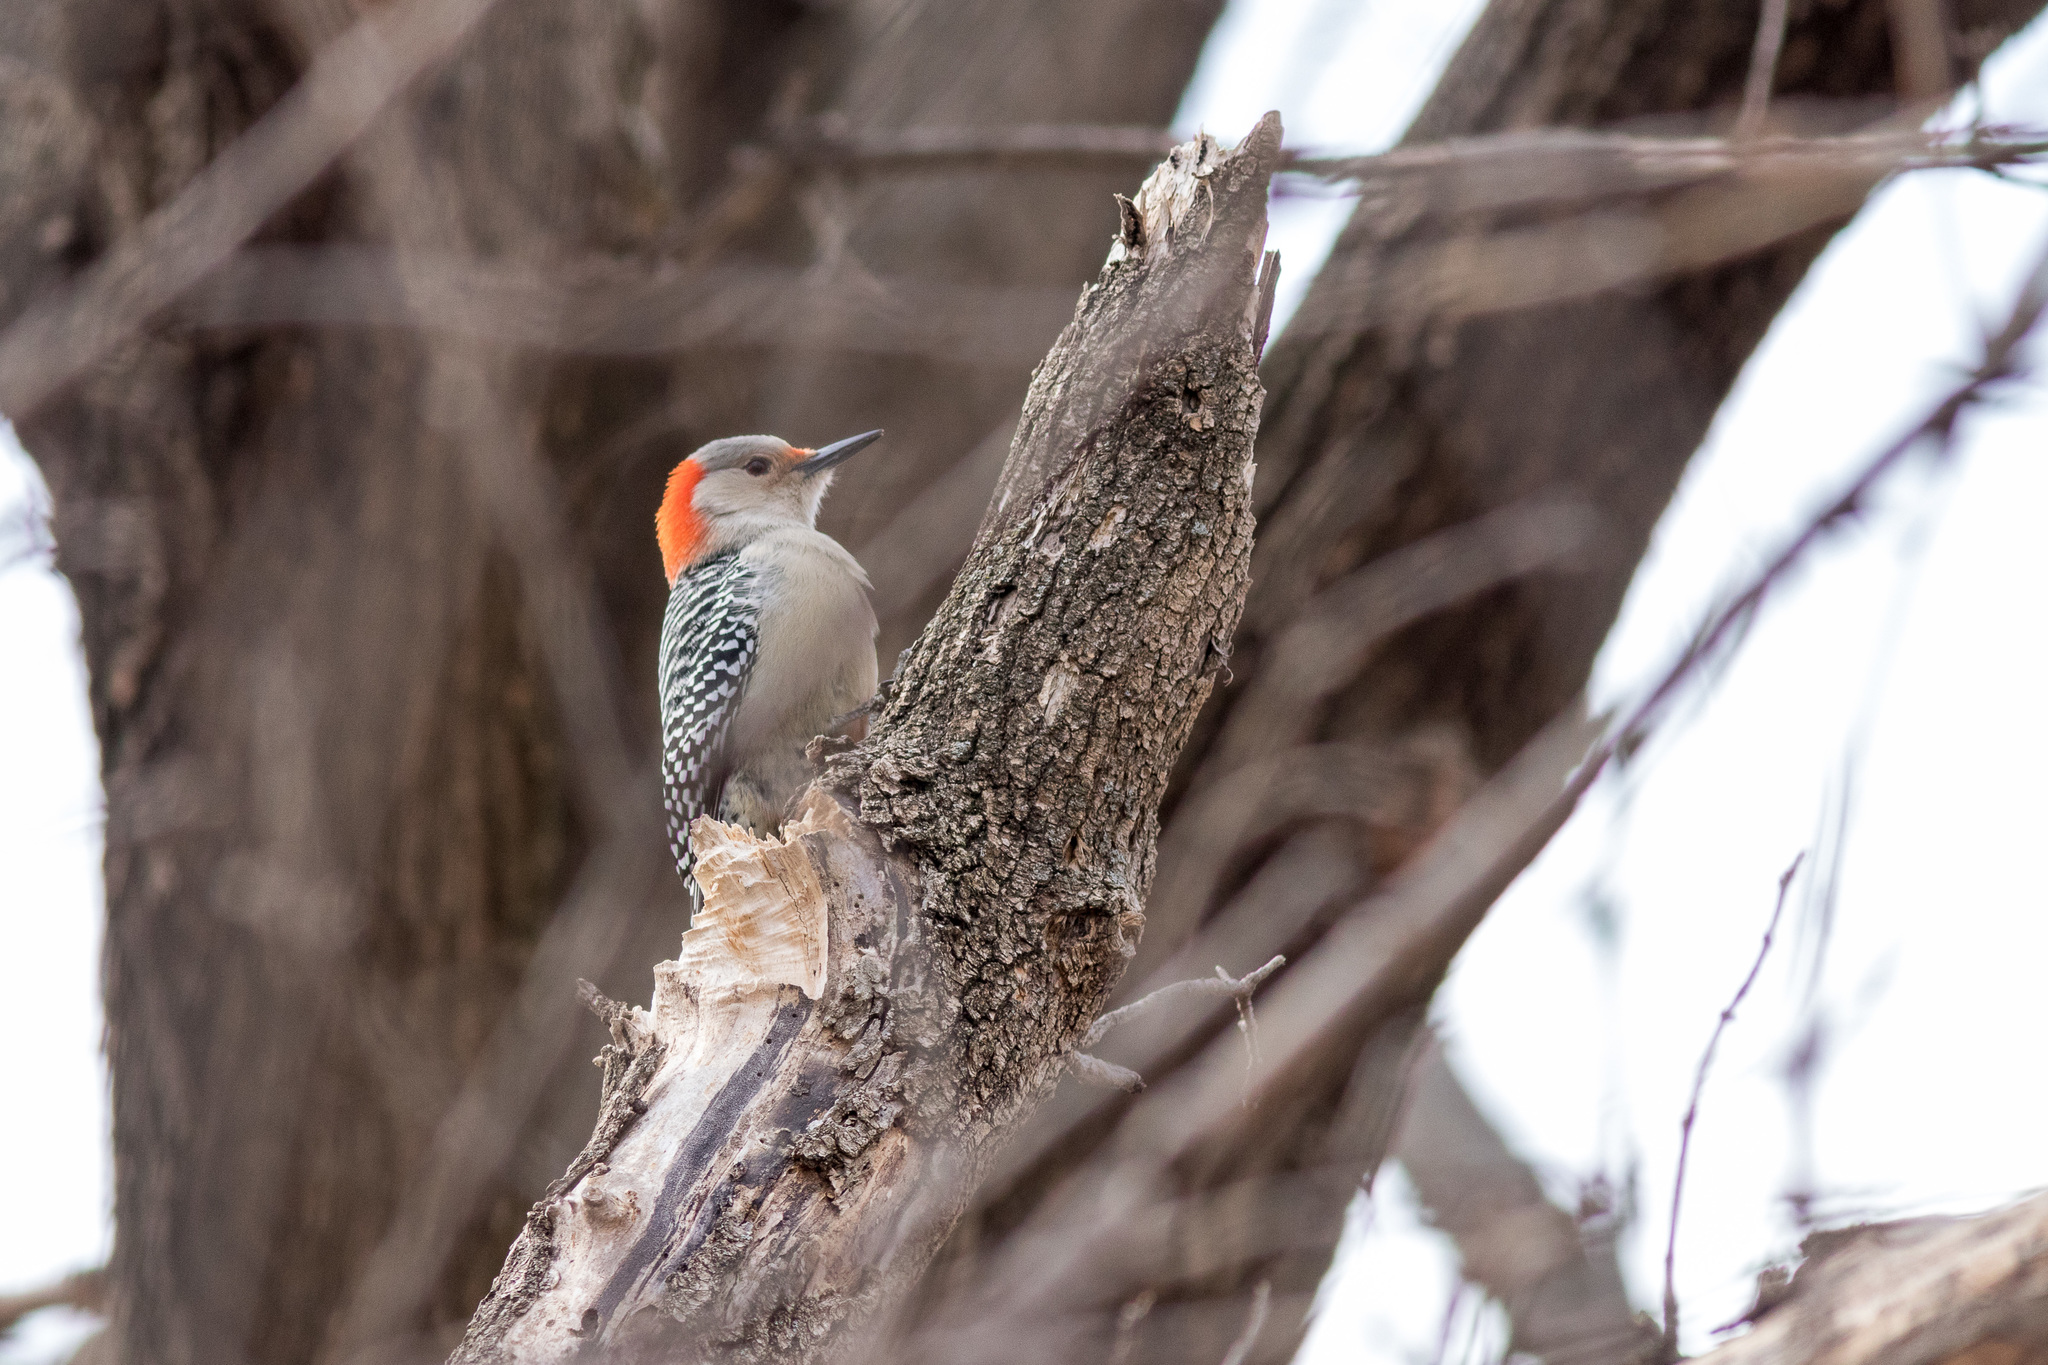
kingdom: Animalia
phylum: Chordata
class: Aves
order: Piciformes
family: Picidae
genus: Melanerpes
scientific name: Melanerpes carolinus
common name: Red-bellied woodpecker
